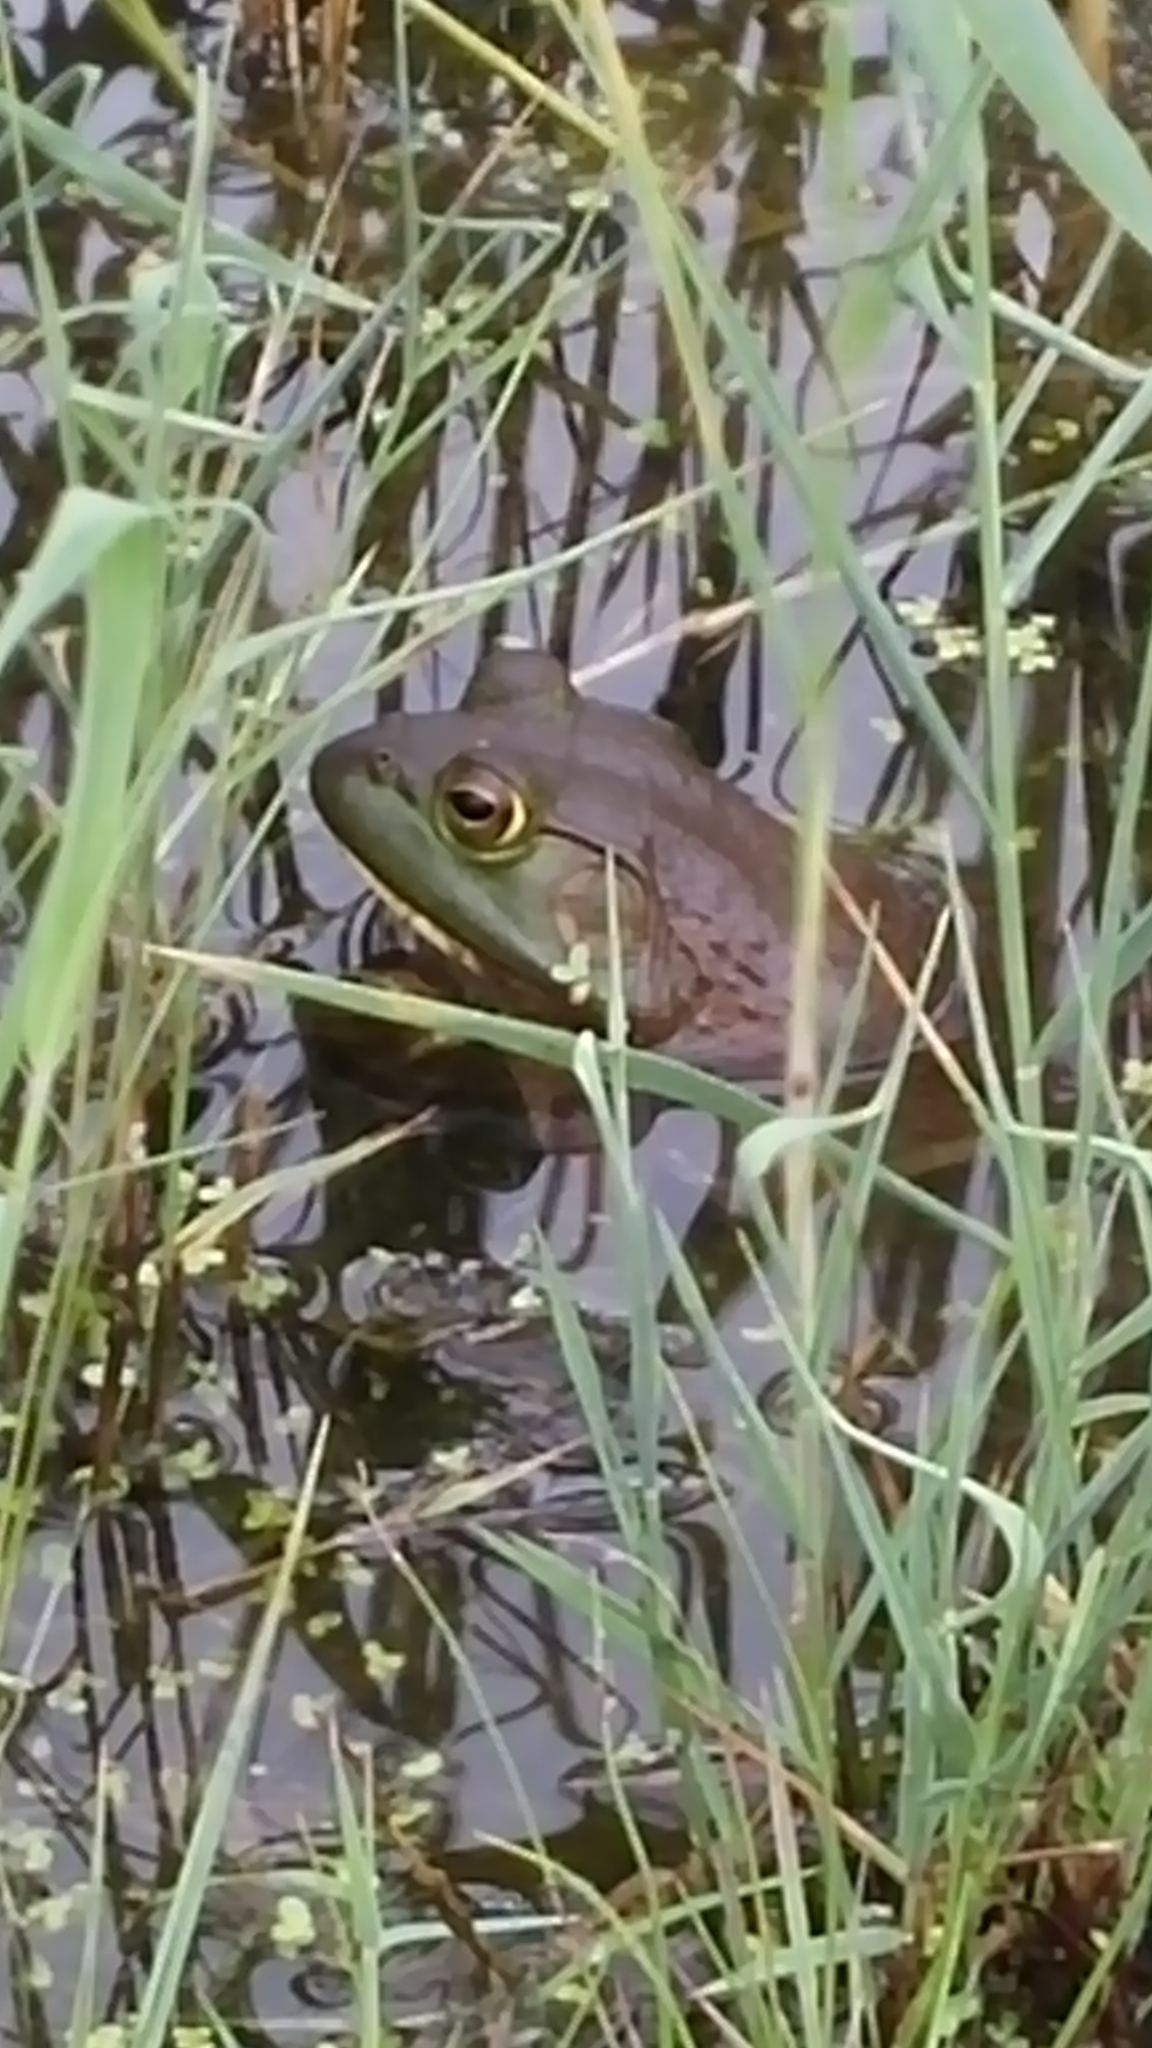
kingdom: Animalia
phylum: Chordata
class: Amphibia
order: Anura
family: Ranidae
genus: Lithobates
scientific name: Lithobates catesbeianus
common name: American bullfrog
